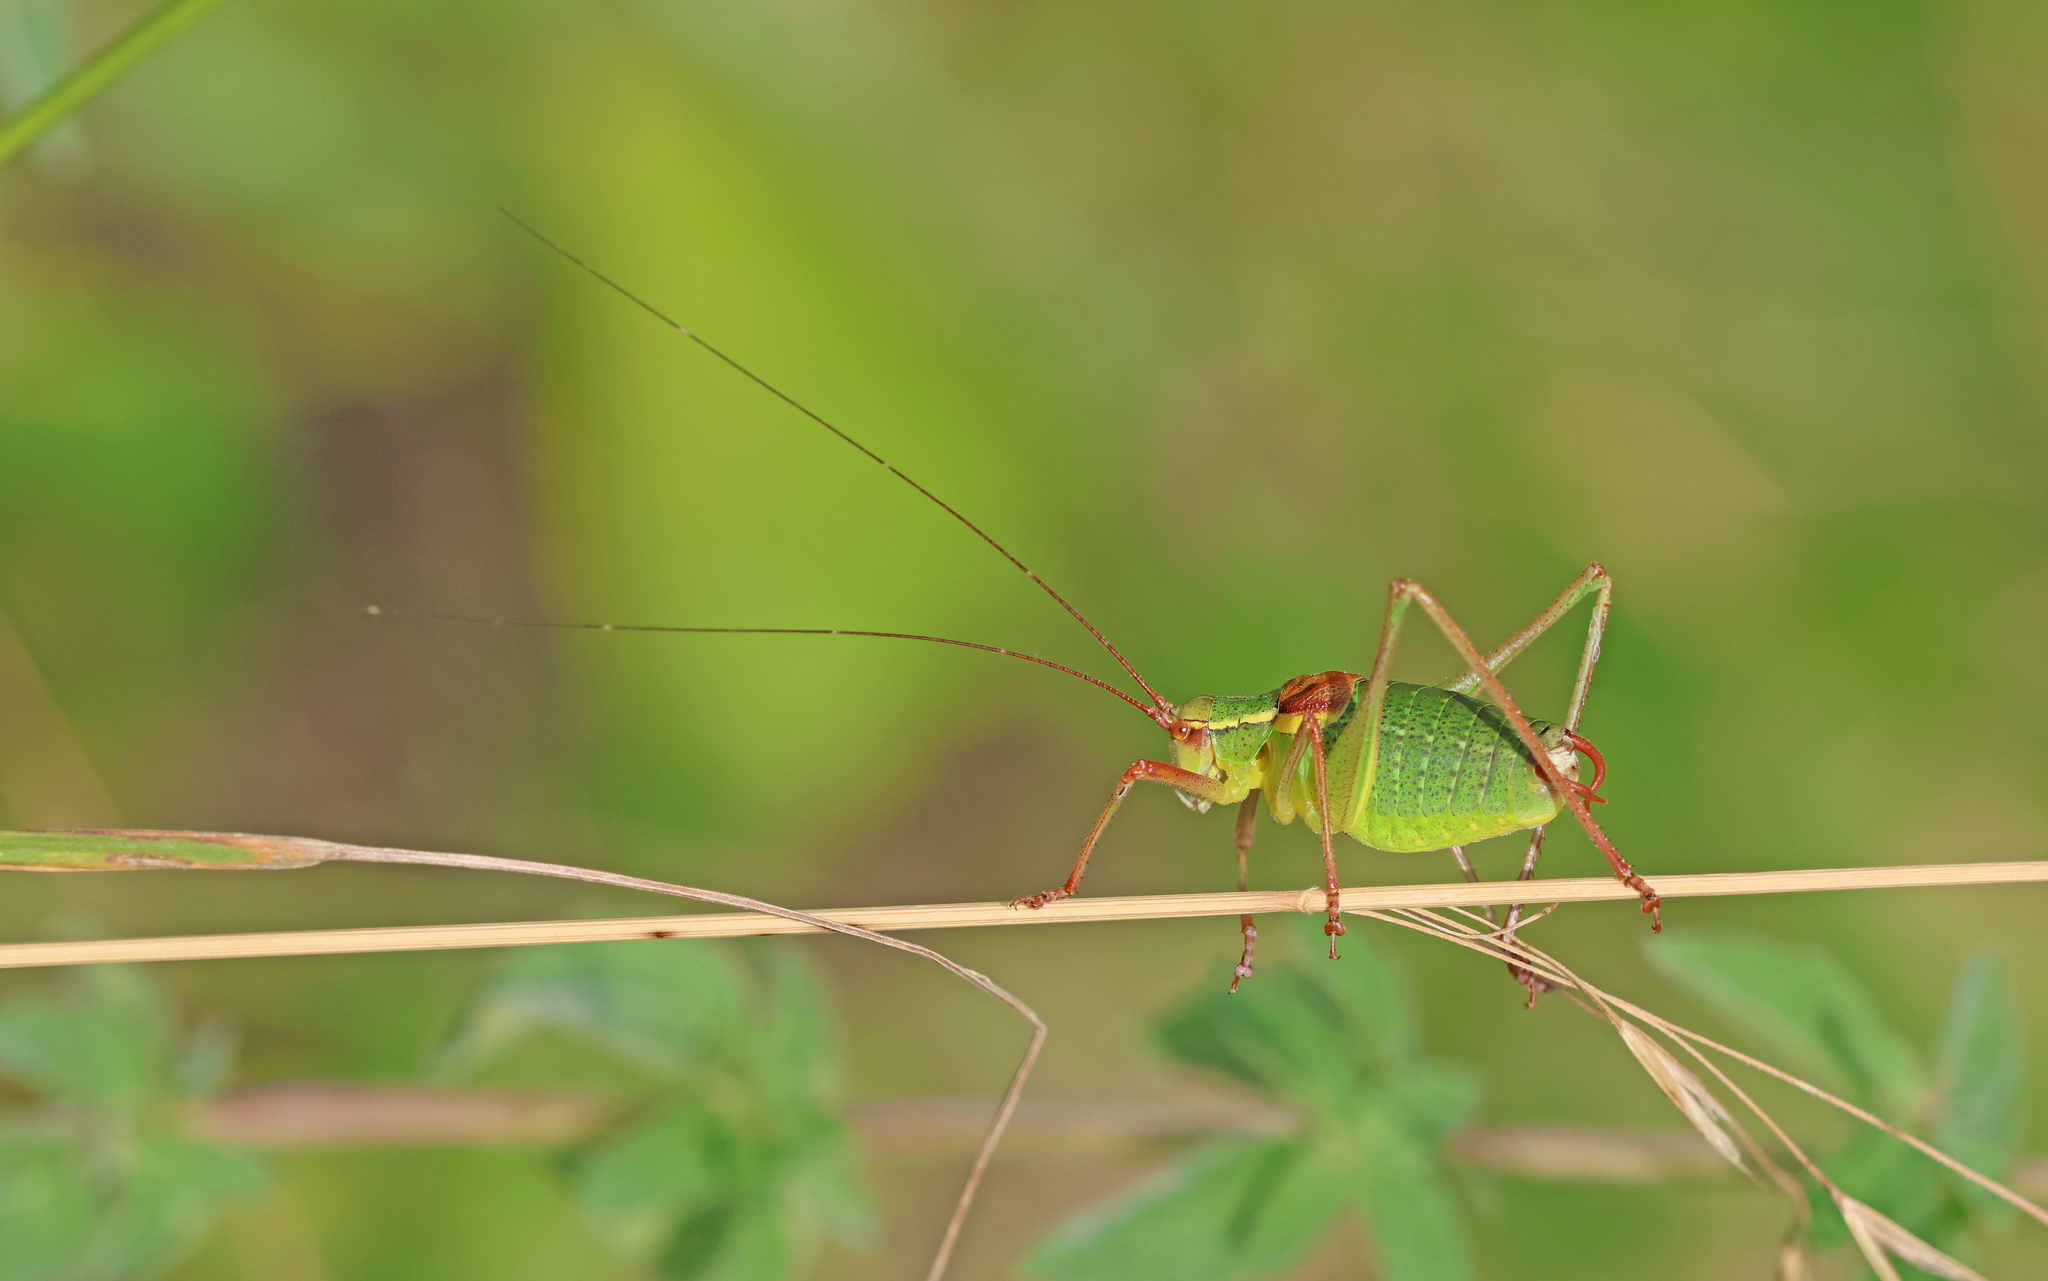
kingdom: Animalia
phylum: Arthropoda
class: Insecta
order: Orthoptera
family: Tettigoniidae
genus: Barbitistes
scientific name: Barbitistes serricauda
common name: Saw-tailed bush-cricket
